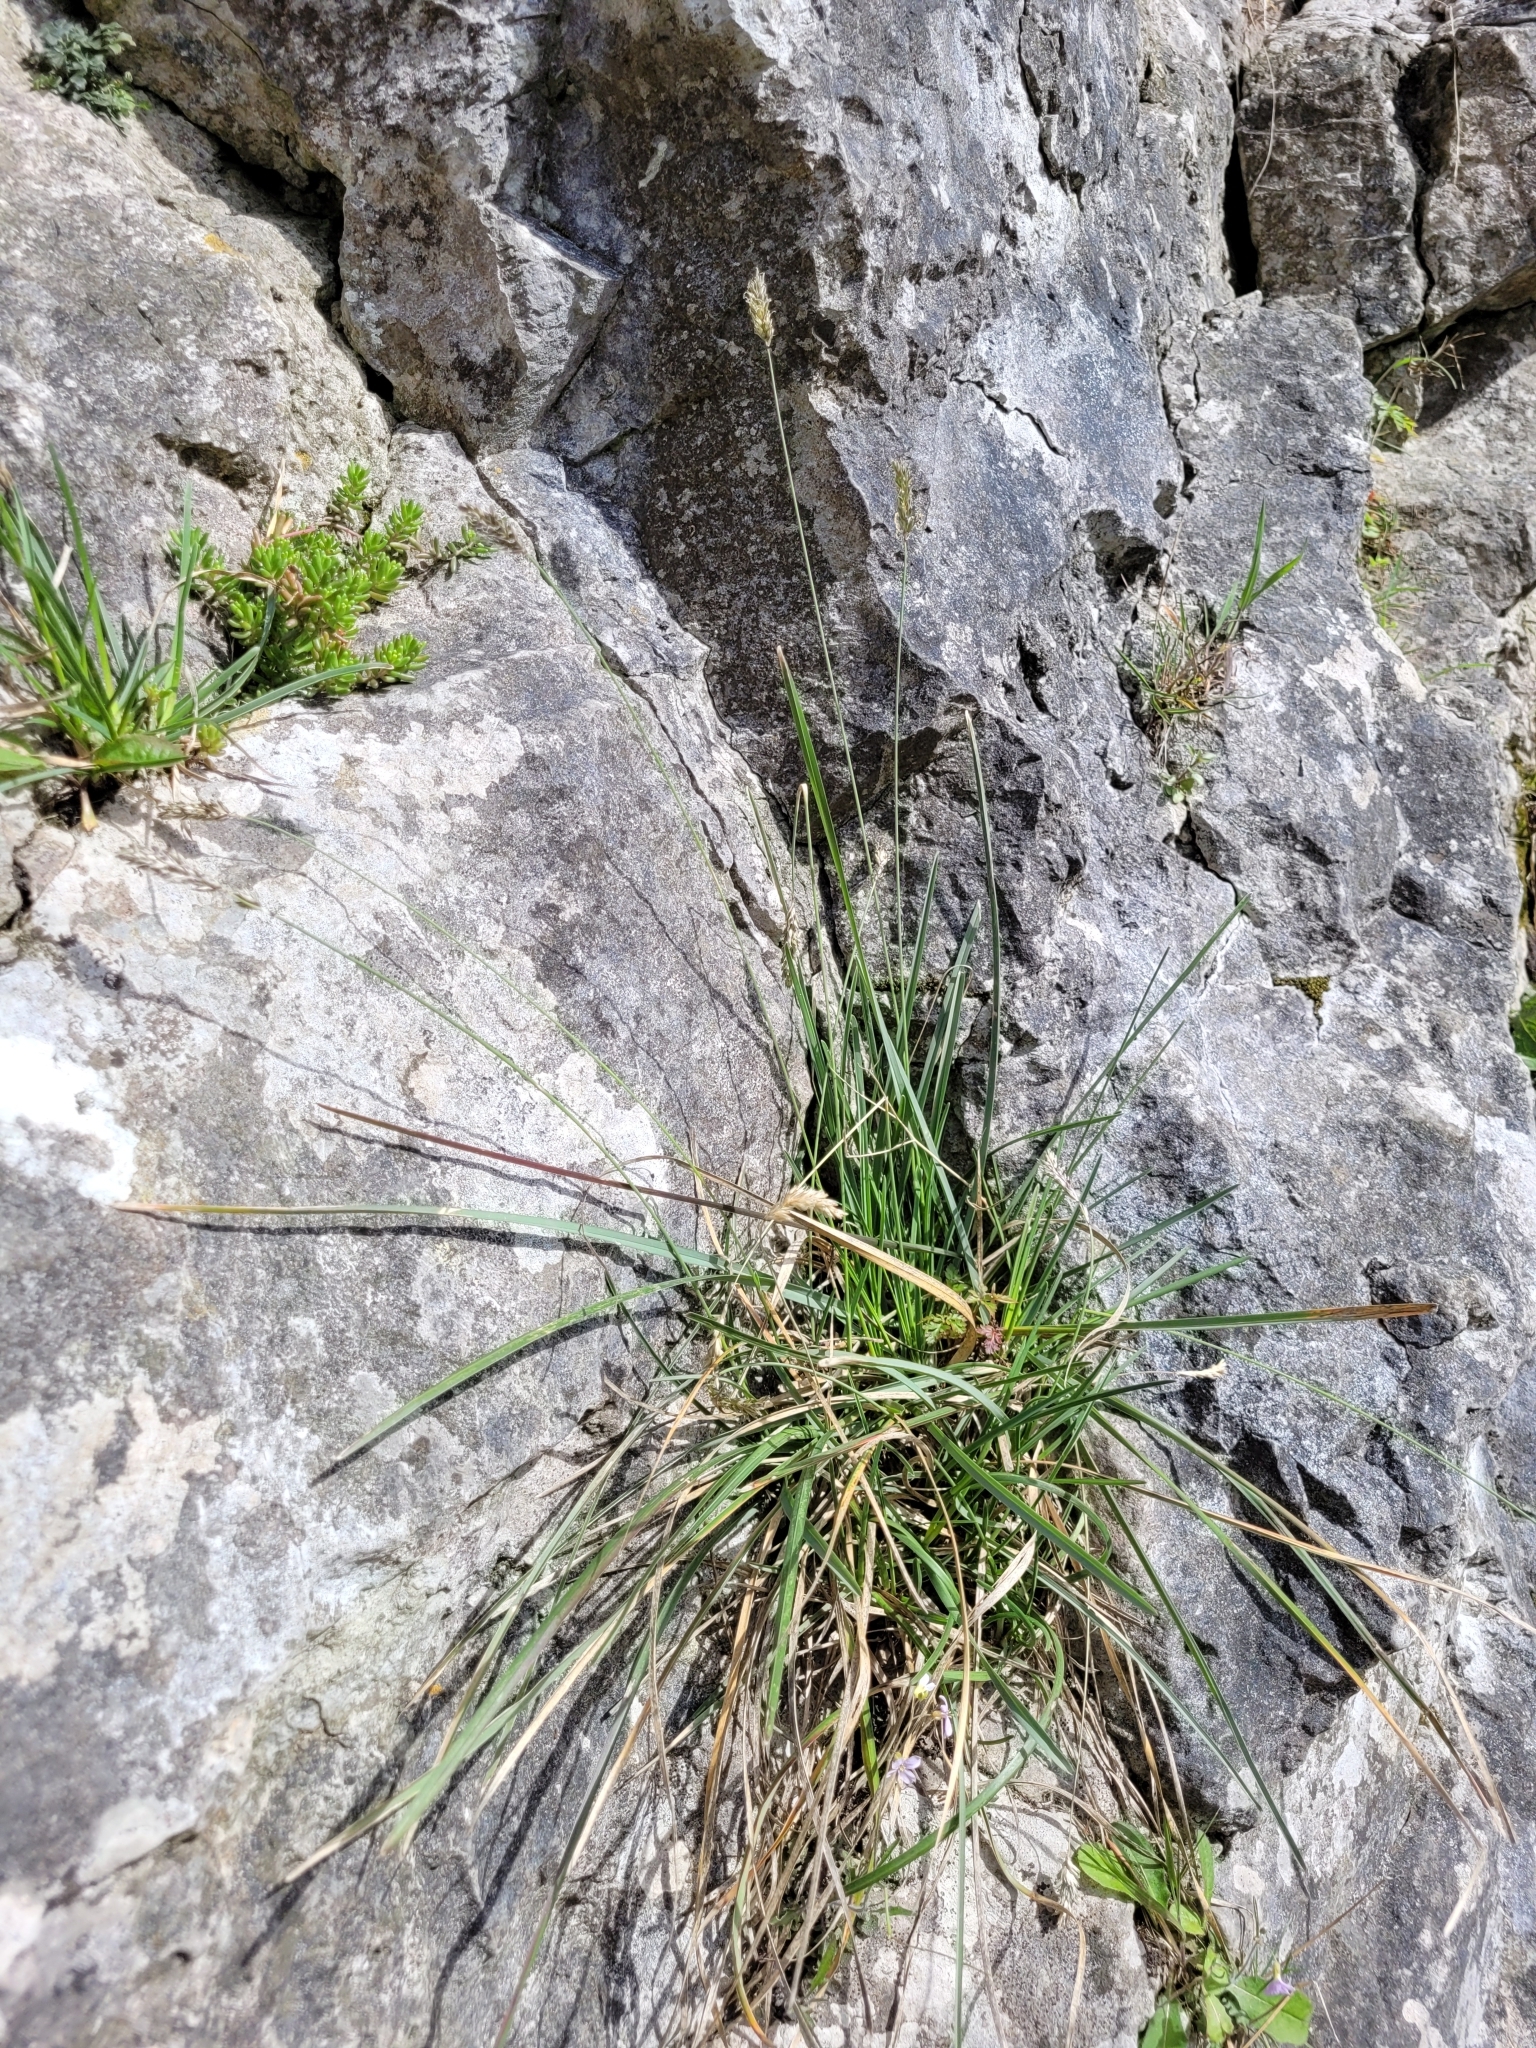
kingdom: Plantae
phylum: Tracheophyta
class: Liliopsida
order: Poales
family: Poaceae
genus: Sesleria
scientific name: Sesleria caerulea
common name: Blue moor-grass
